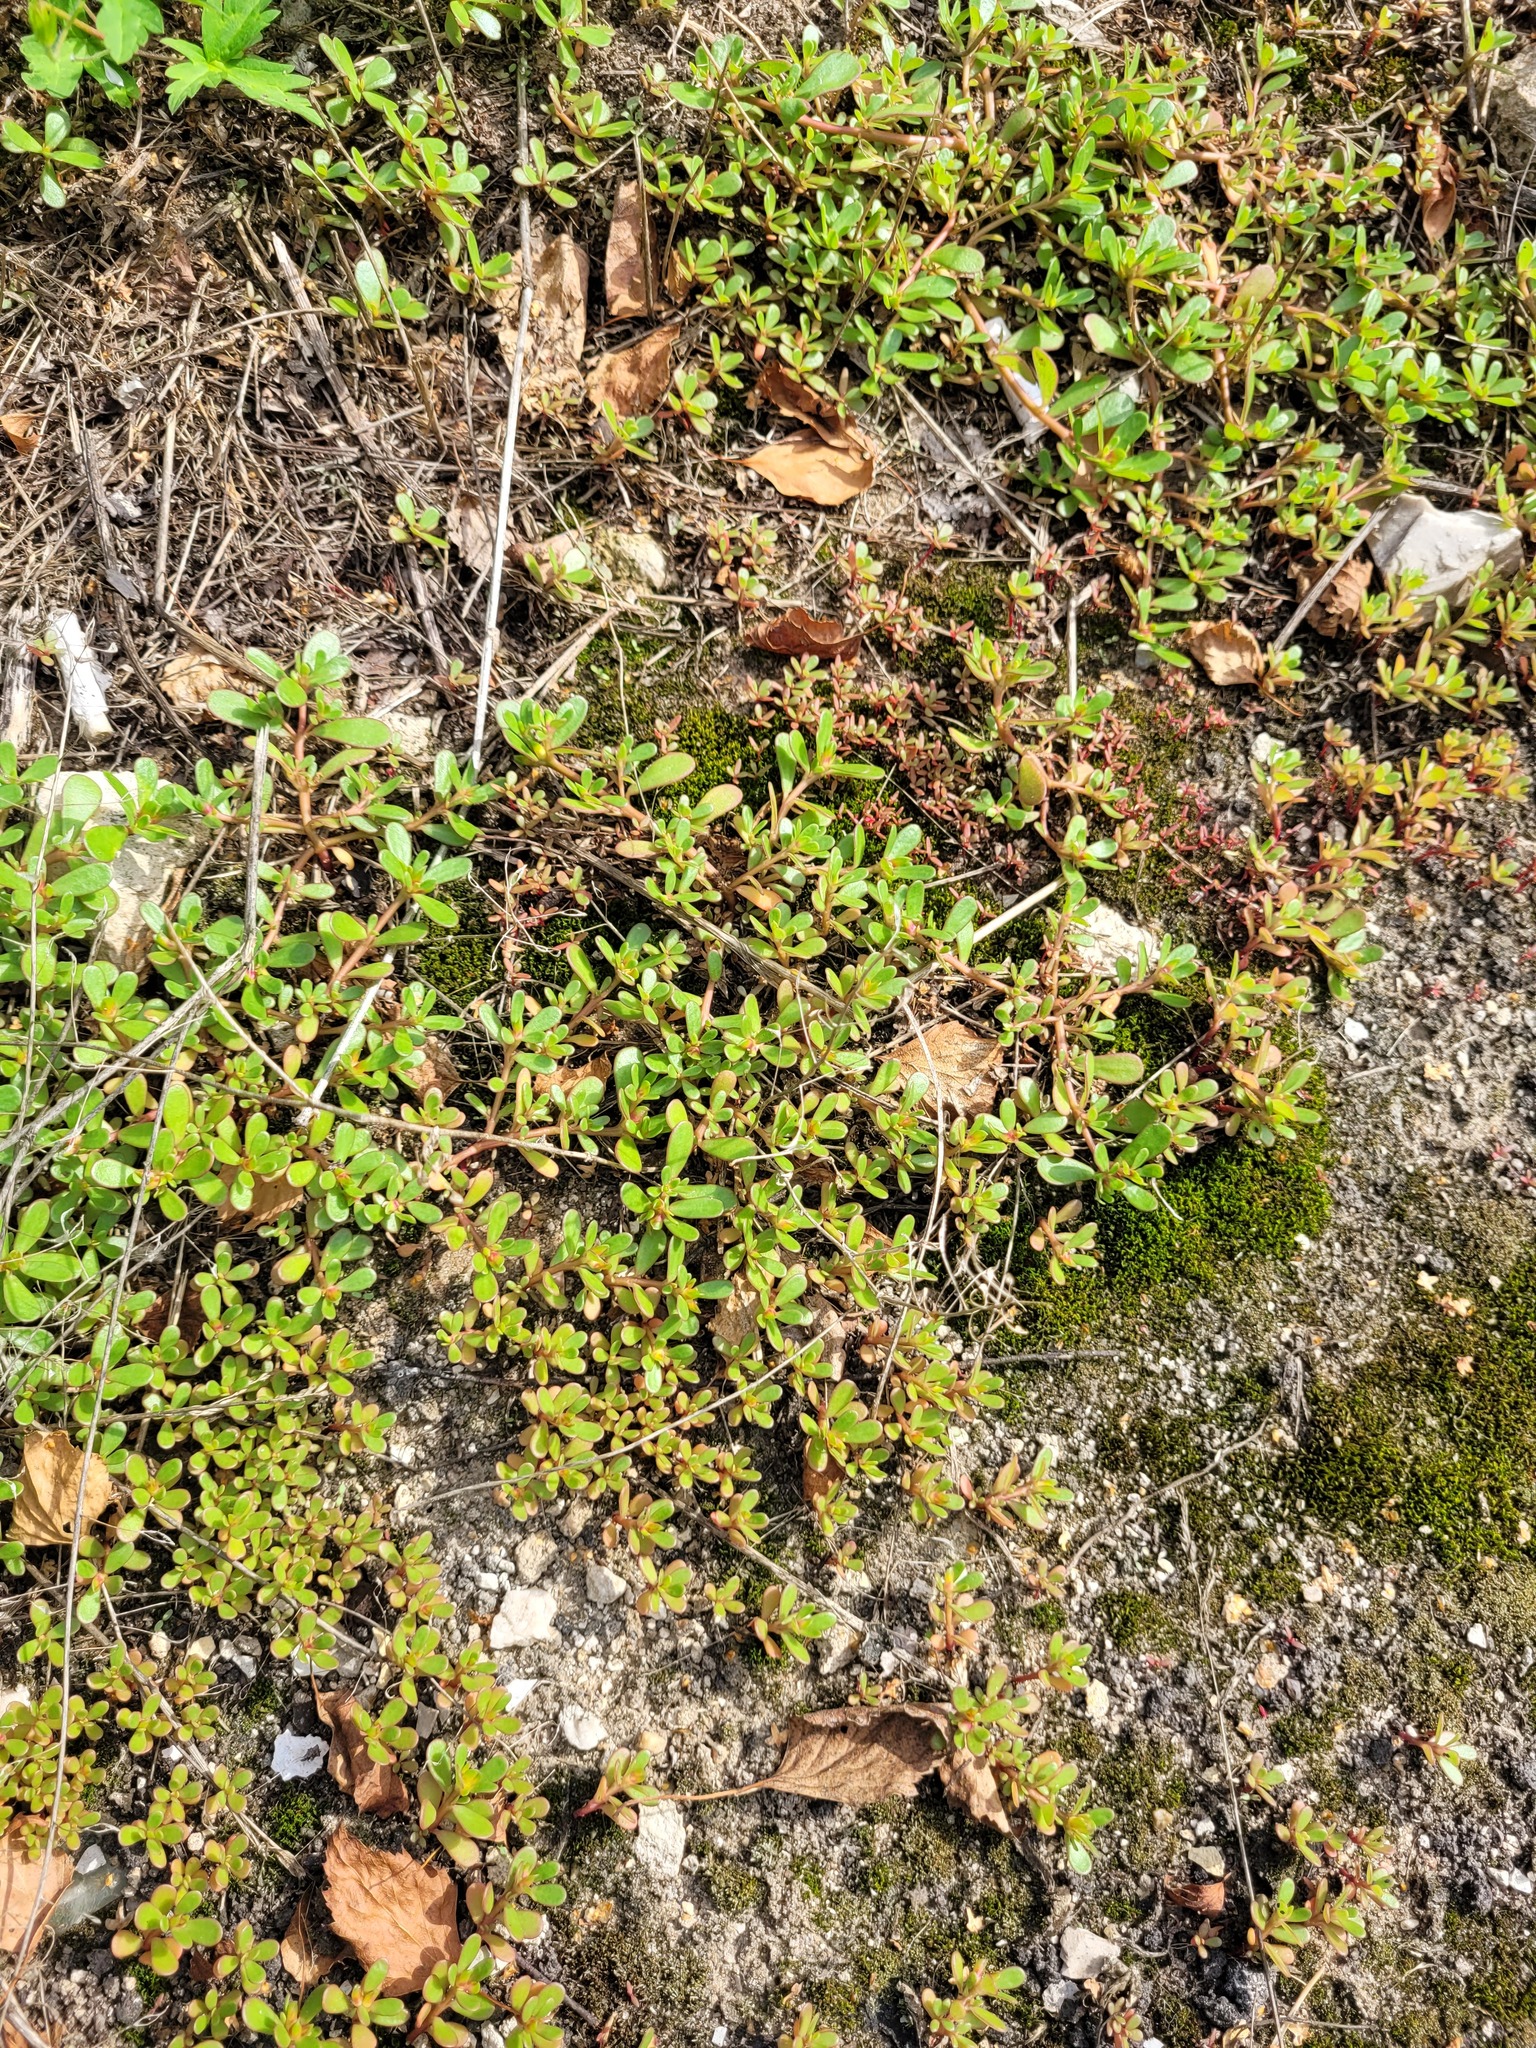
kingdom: Plantae
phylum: Tracheophyta
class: Magnoliopsida
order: Caryophyllales
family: Portulacaceae
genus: Portulaca
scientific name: Portulaca oleracea
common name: Common purslane
